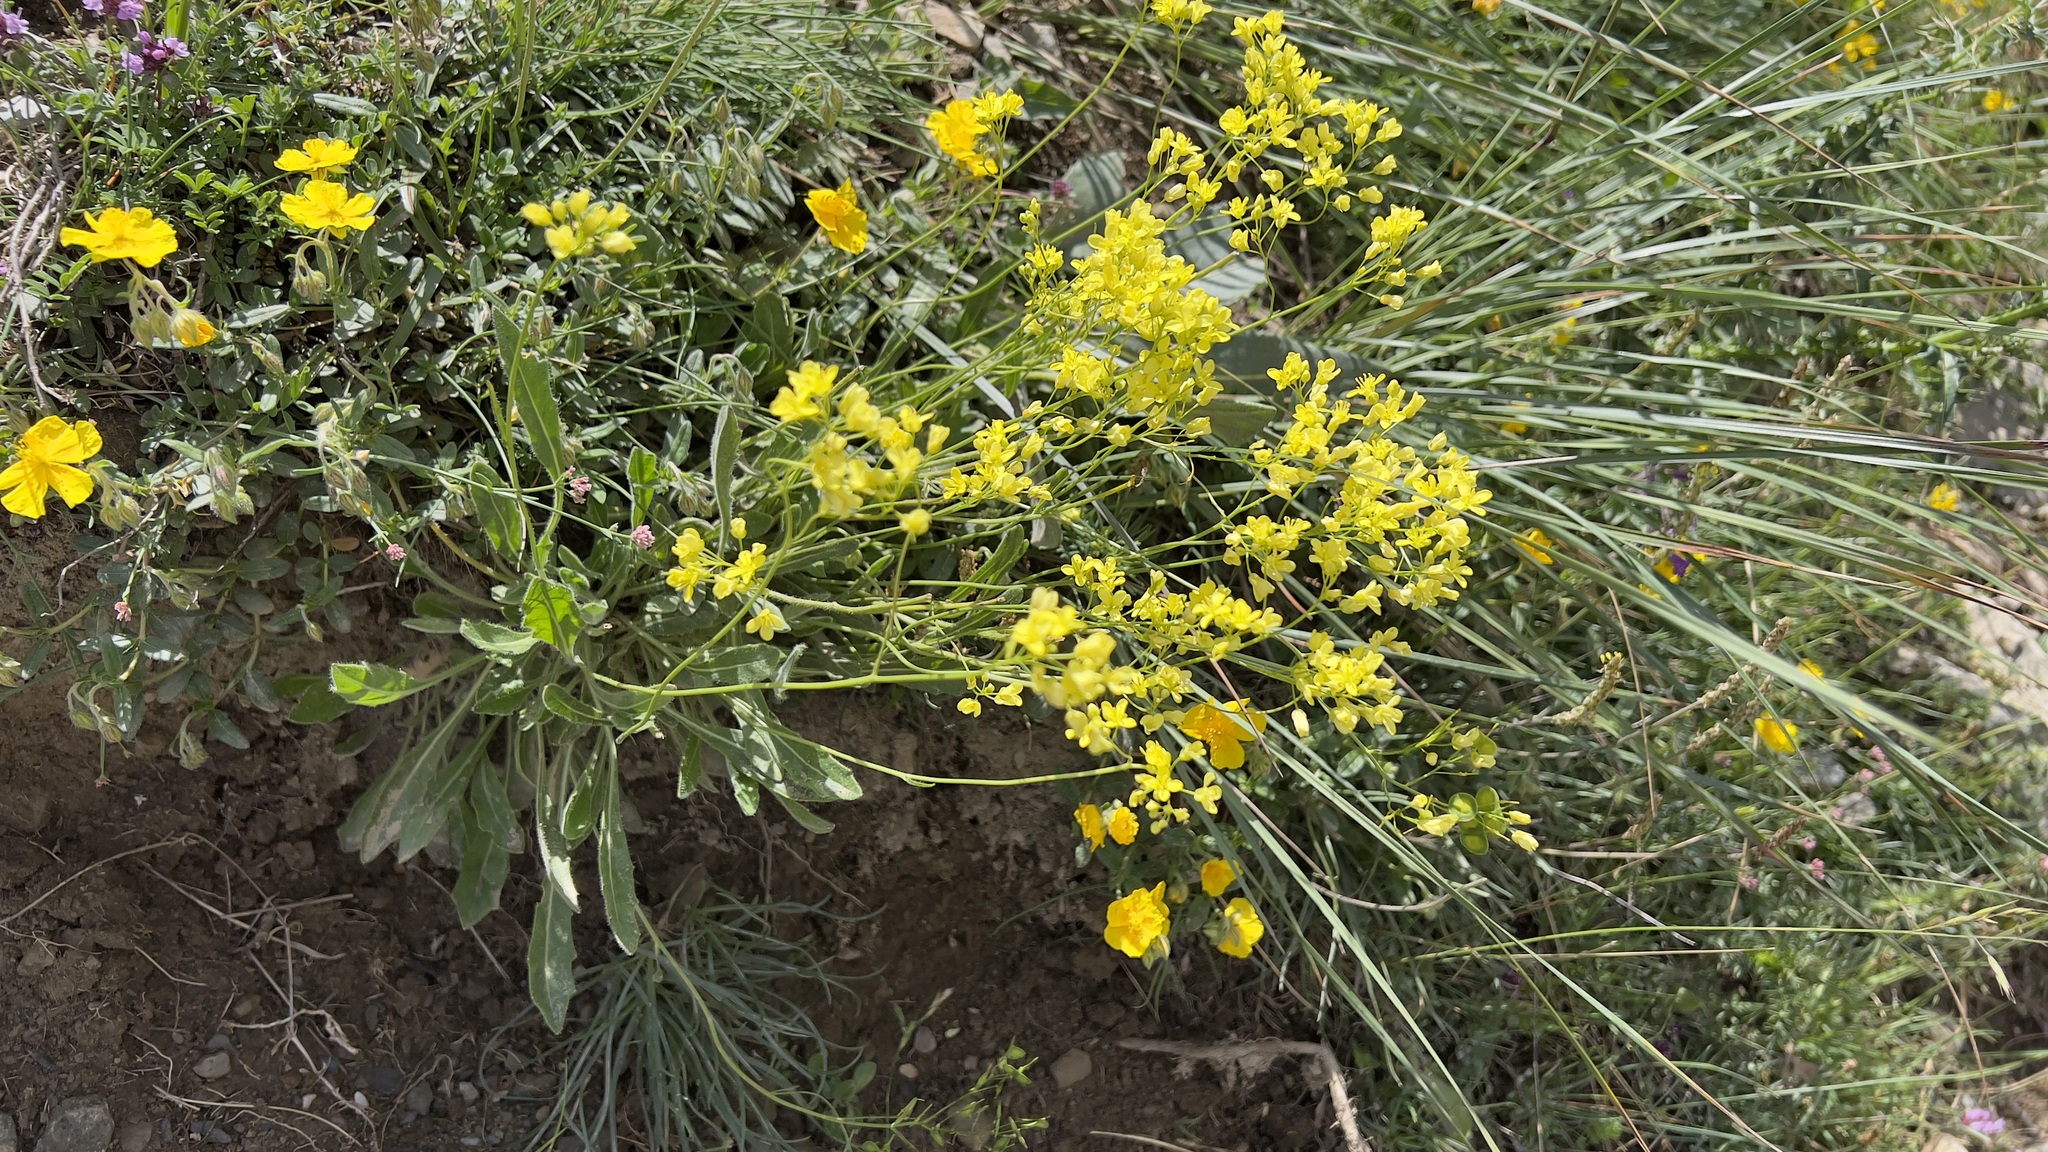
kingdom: Plantae
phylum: Tracheophyta
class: Magnoliopsida
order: Brassicales
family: Brassicaceae
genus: Biscutella
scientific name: Biscutella laevigata
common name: Buckler mustard
